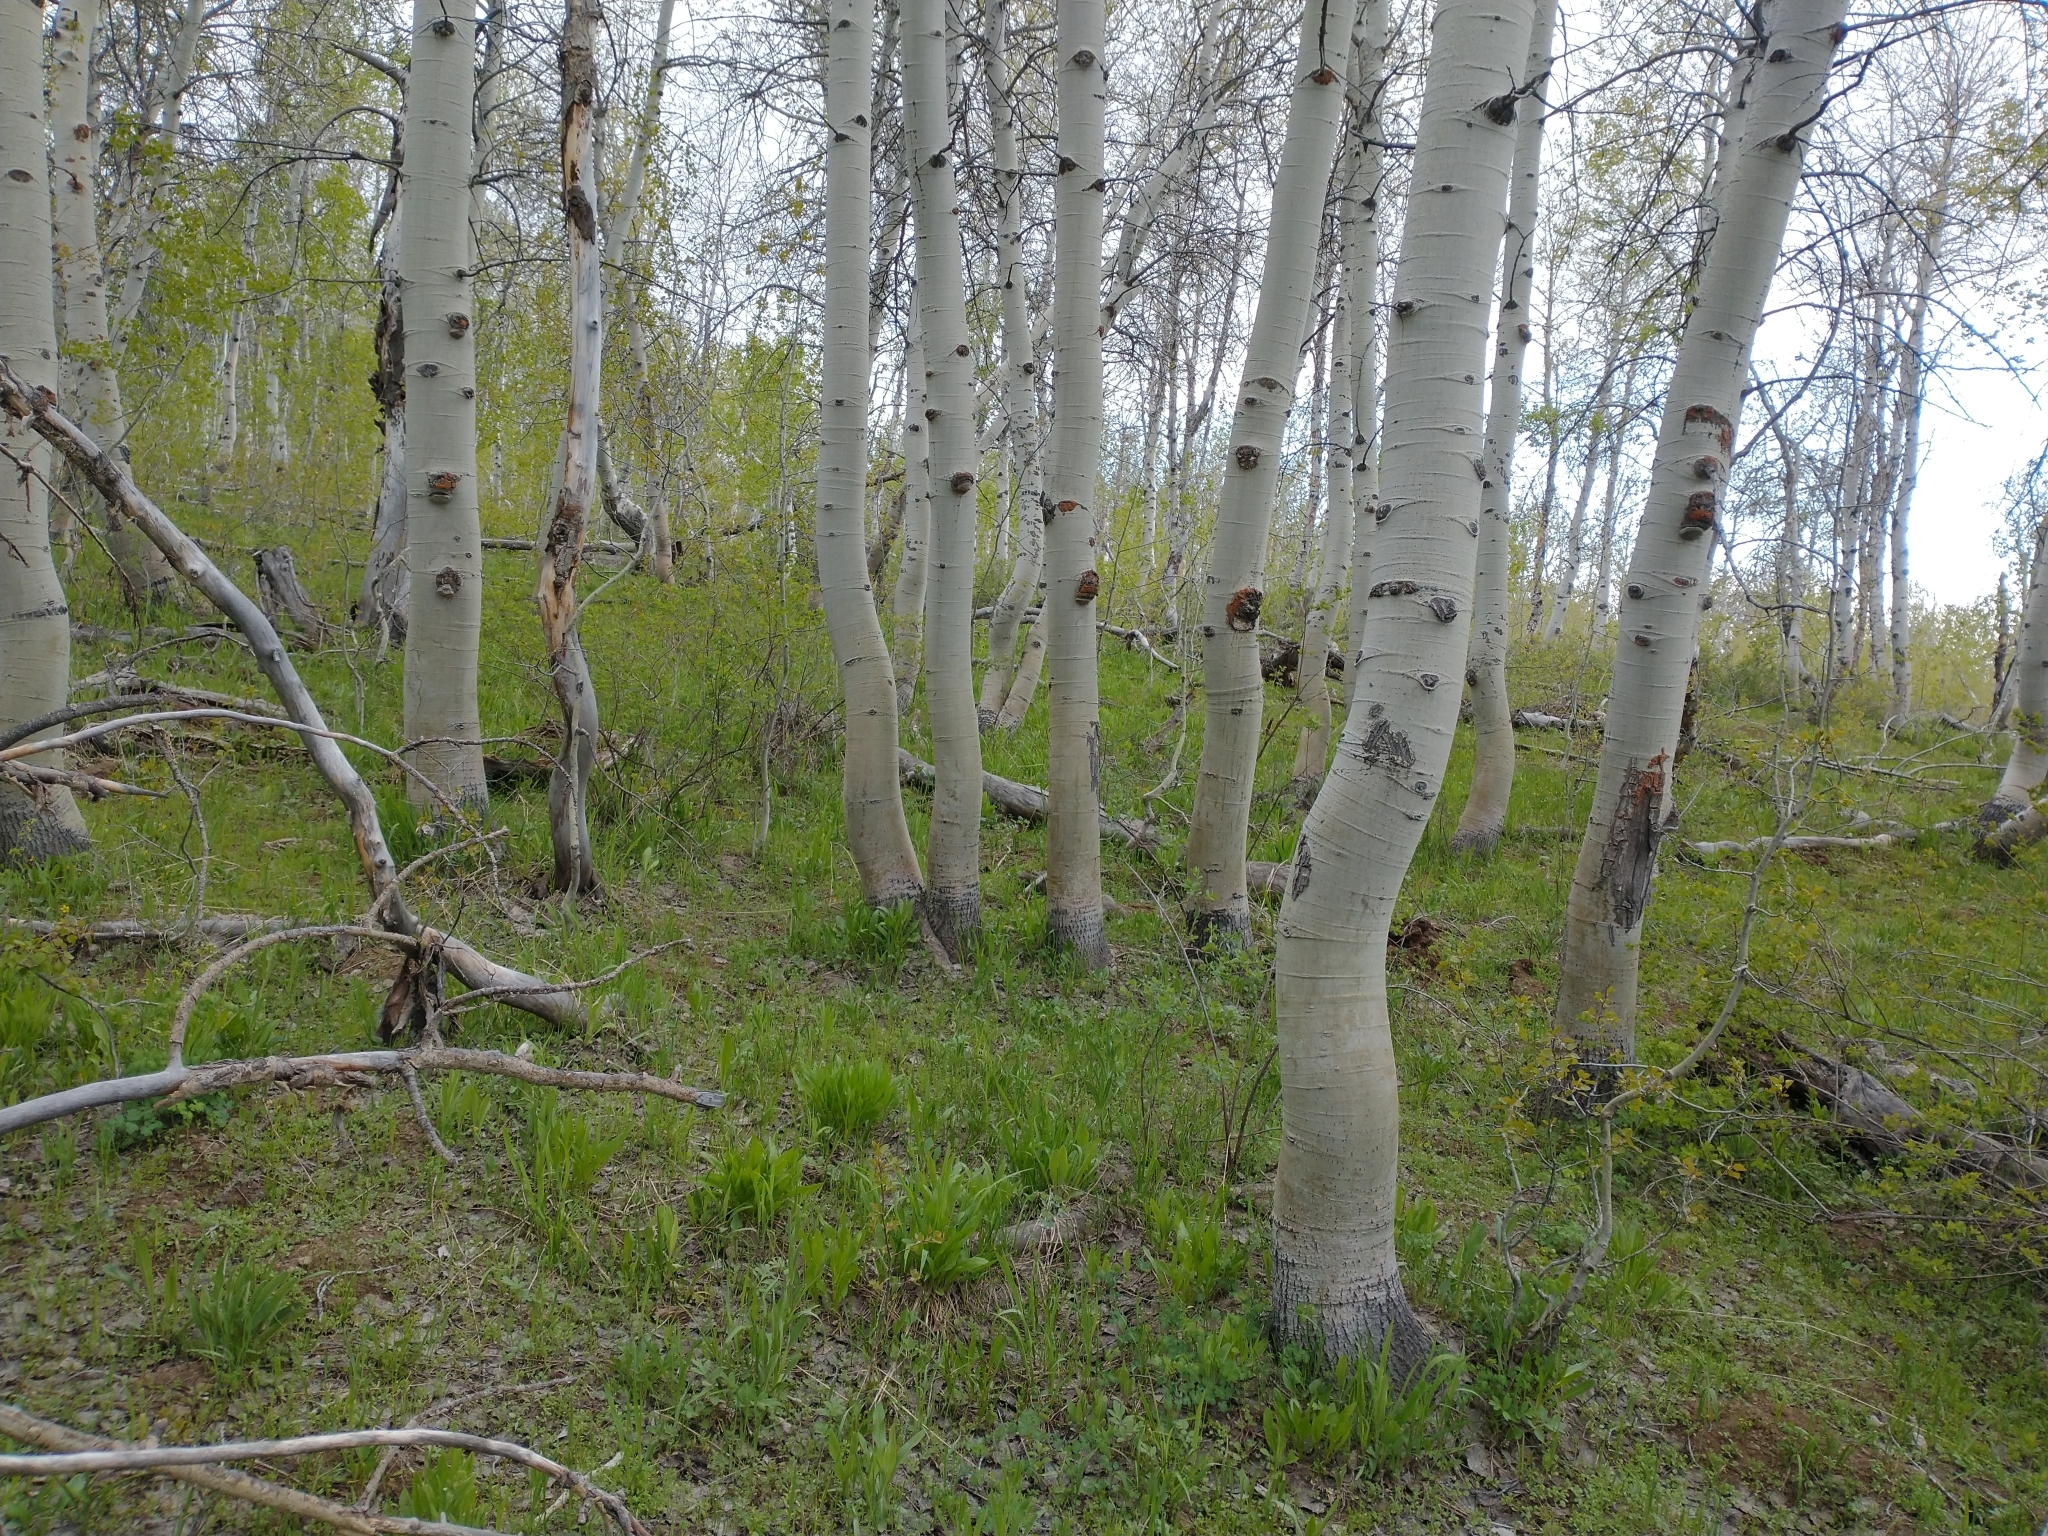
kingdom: Plantae
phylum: Tracheophyta
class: Magnoliopsida
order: Malpighiales
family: Salicaceae
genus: Populus
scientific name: Populus tremuloides
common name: Quaking aspen
